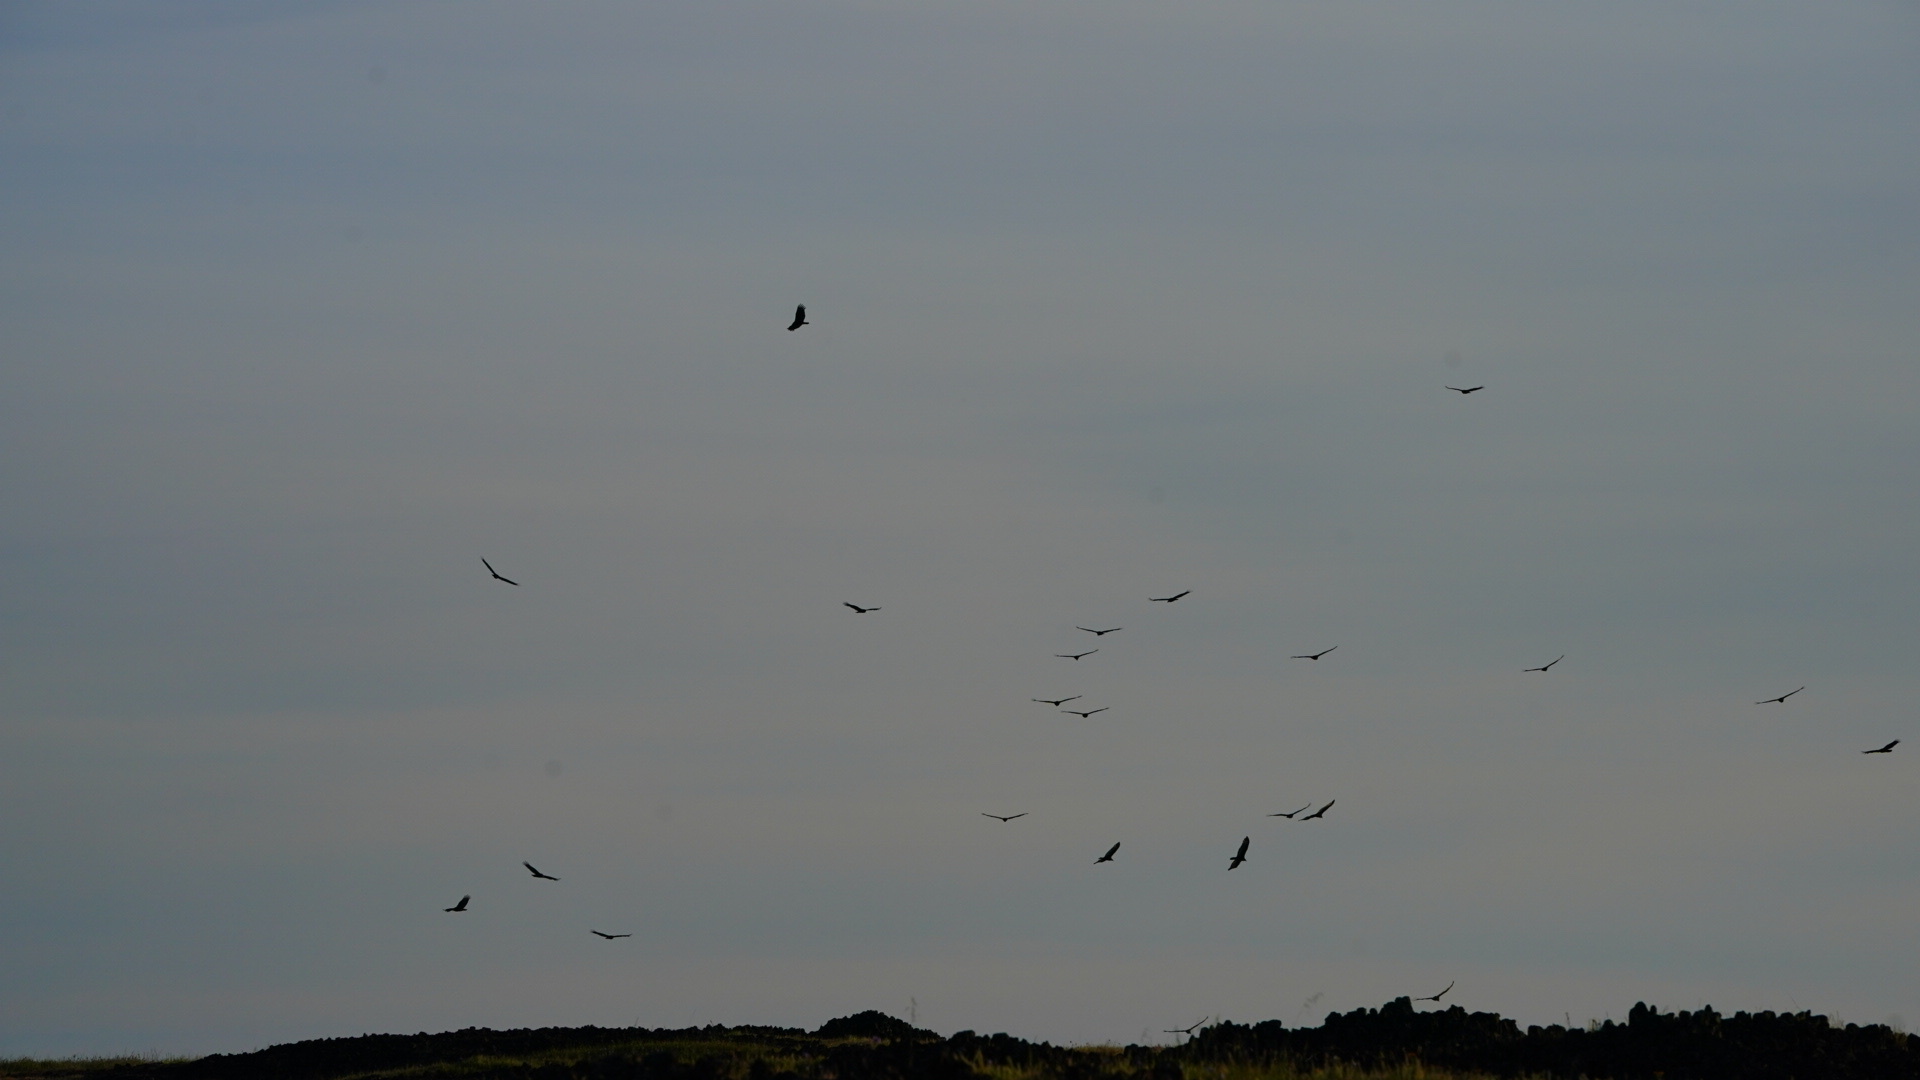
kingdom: Animalia
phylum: Chordata
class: Aves
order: Accipitriformes
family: Cathartidae
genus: Cathartes
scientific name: Cathartes aura
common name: Turkey vulture
